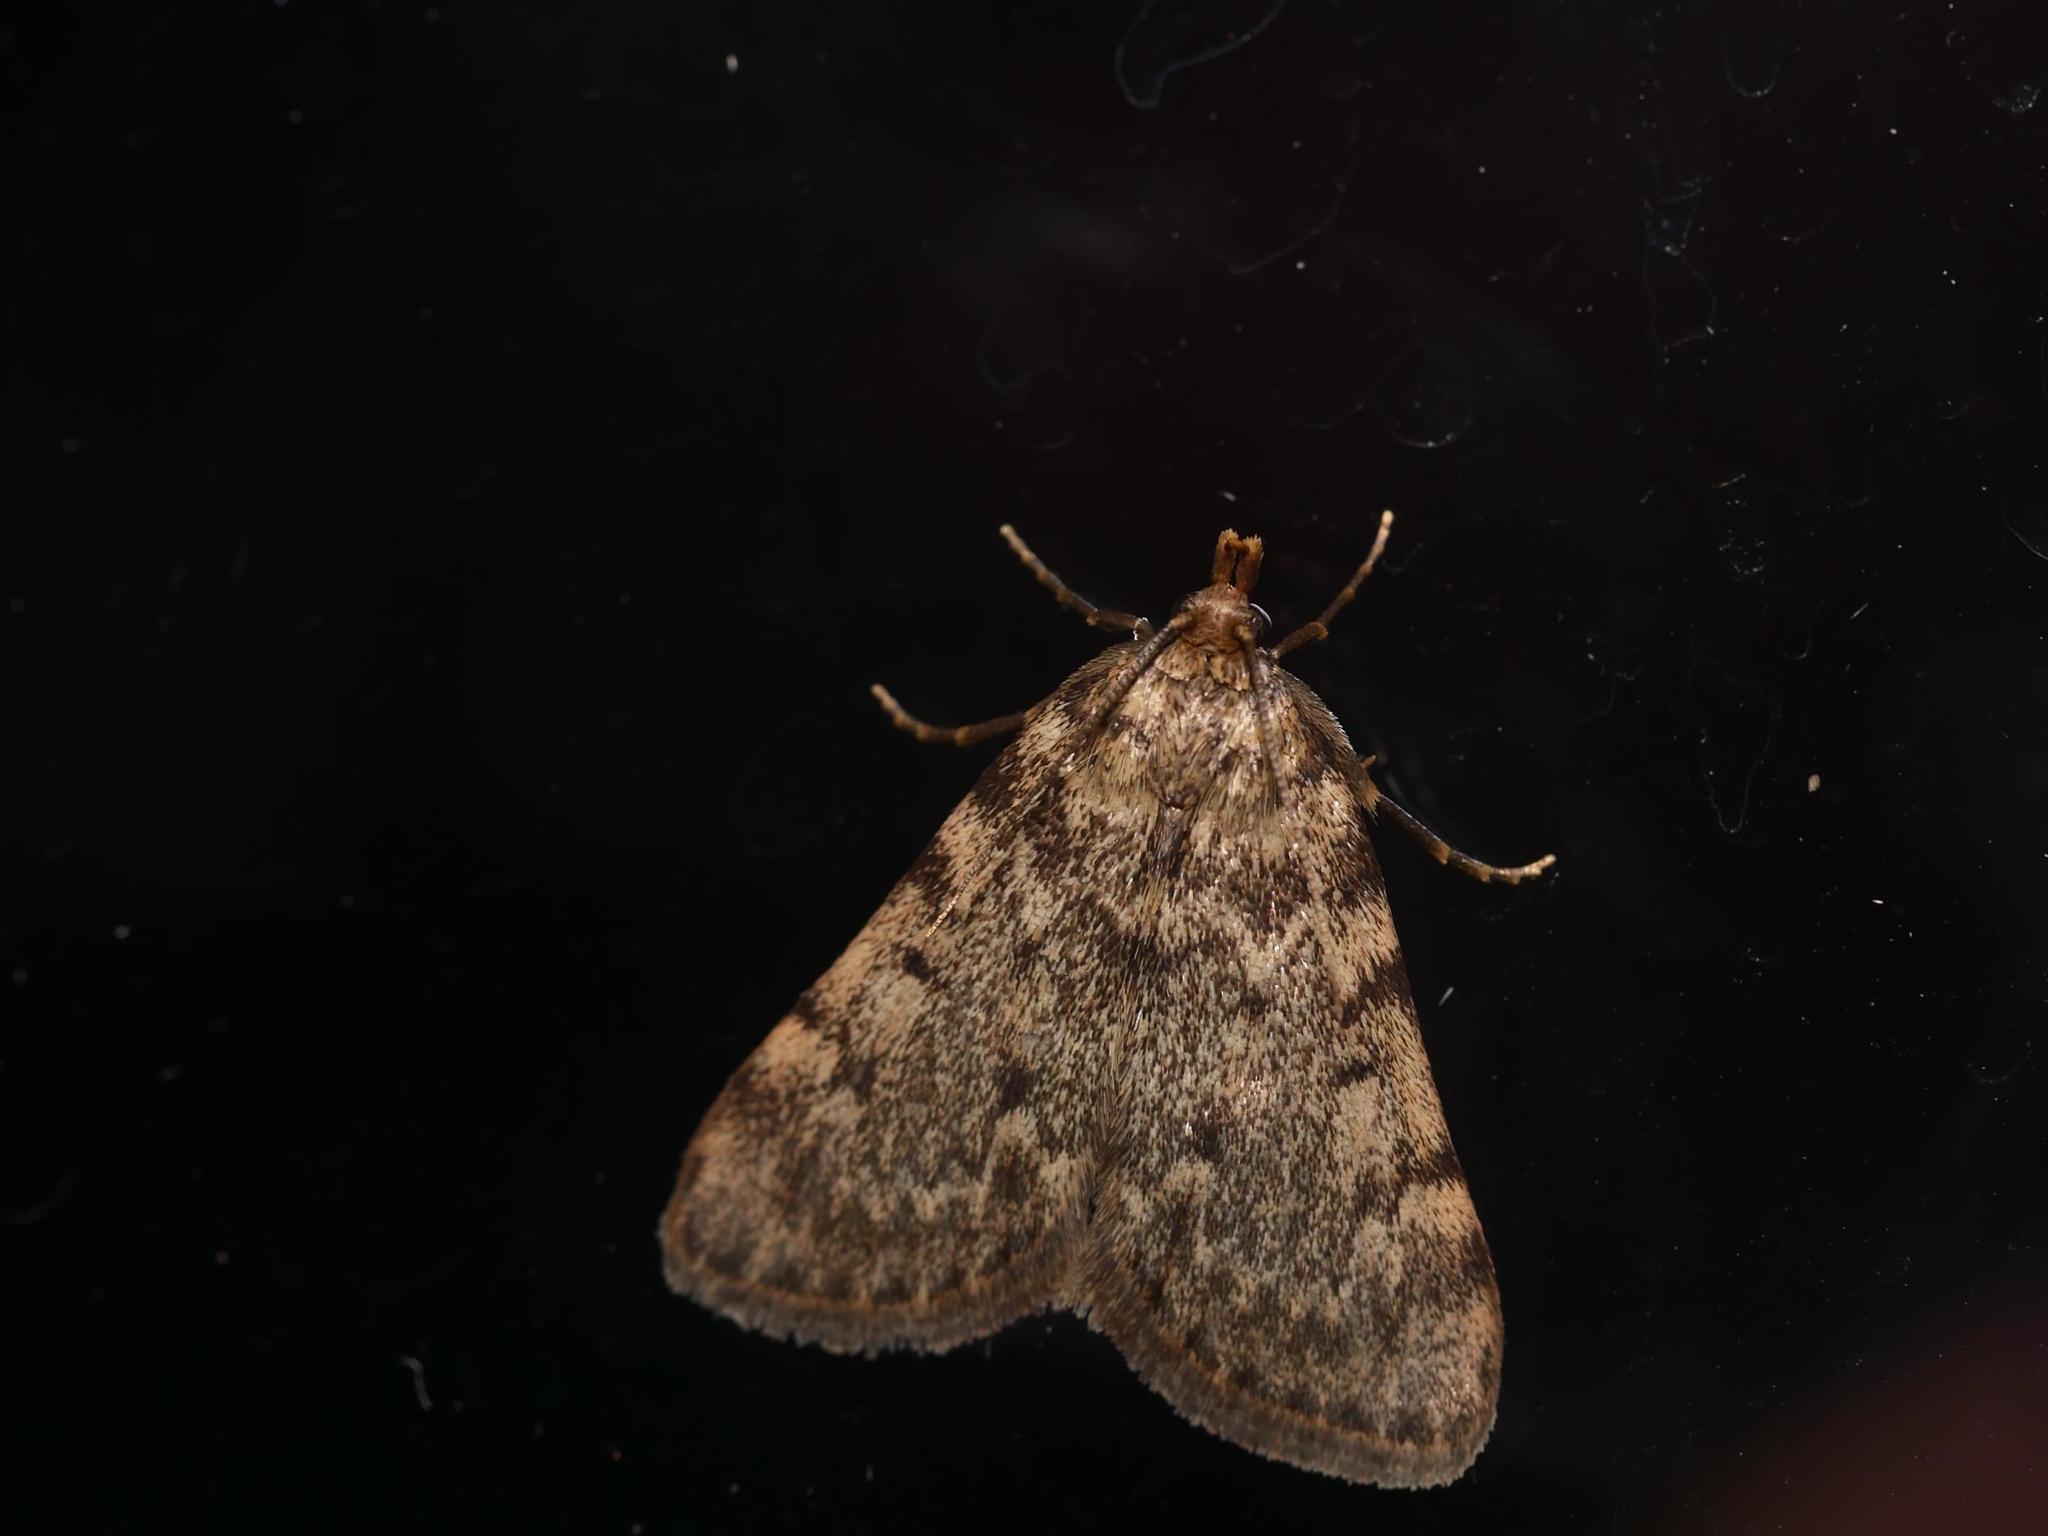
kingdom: Animalia
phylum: Arthropoda
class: Insecta
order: Lepidoptera
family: Pyralidae
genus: Aglossa
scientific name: Aglossa pinguinalis
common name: Large tabby
